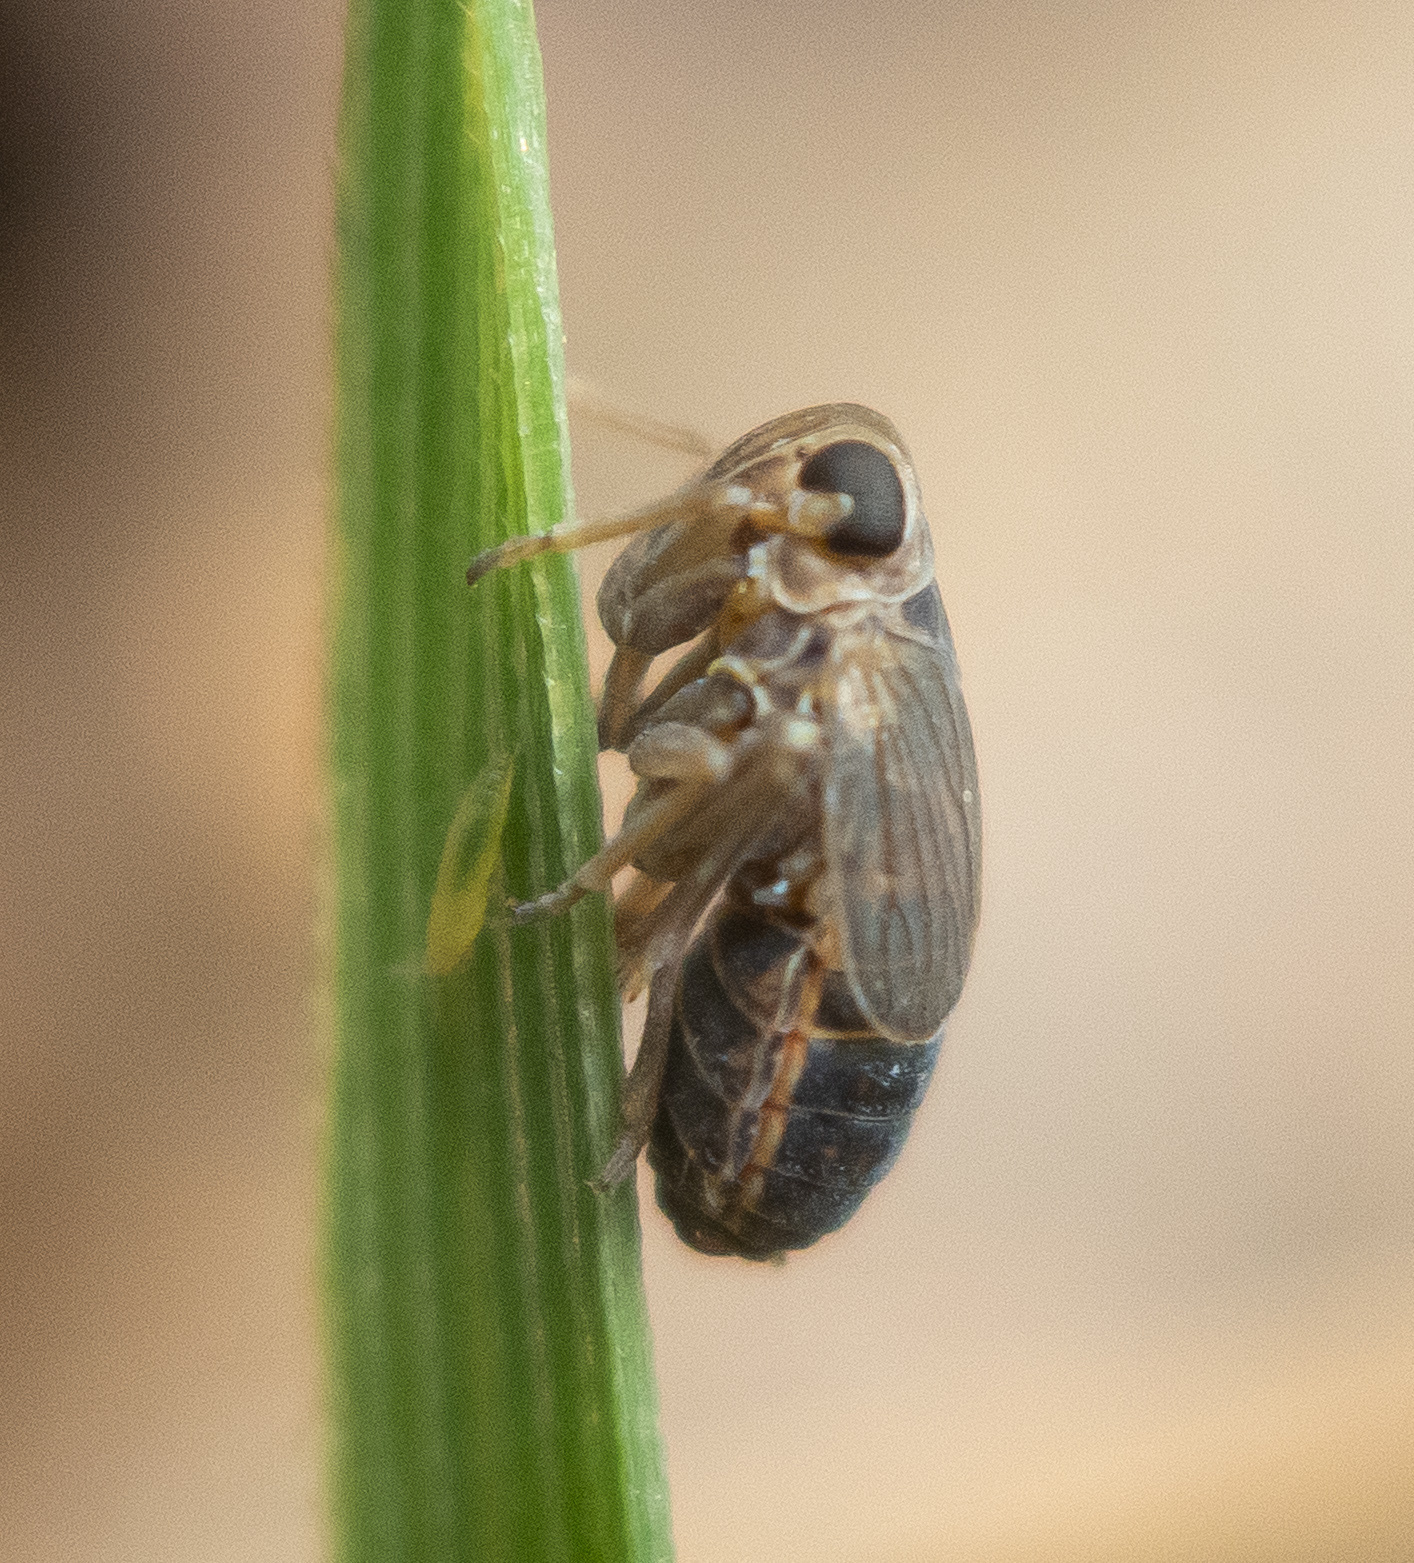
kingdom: Animalia
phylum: Arthropoda
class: Insecta
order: Hemiptera
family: Delphacidae
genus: Kosswigianella
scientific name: Kosswigianella perusta
